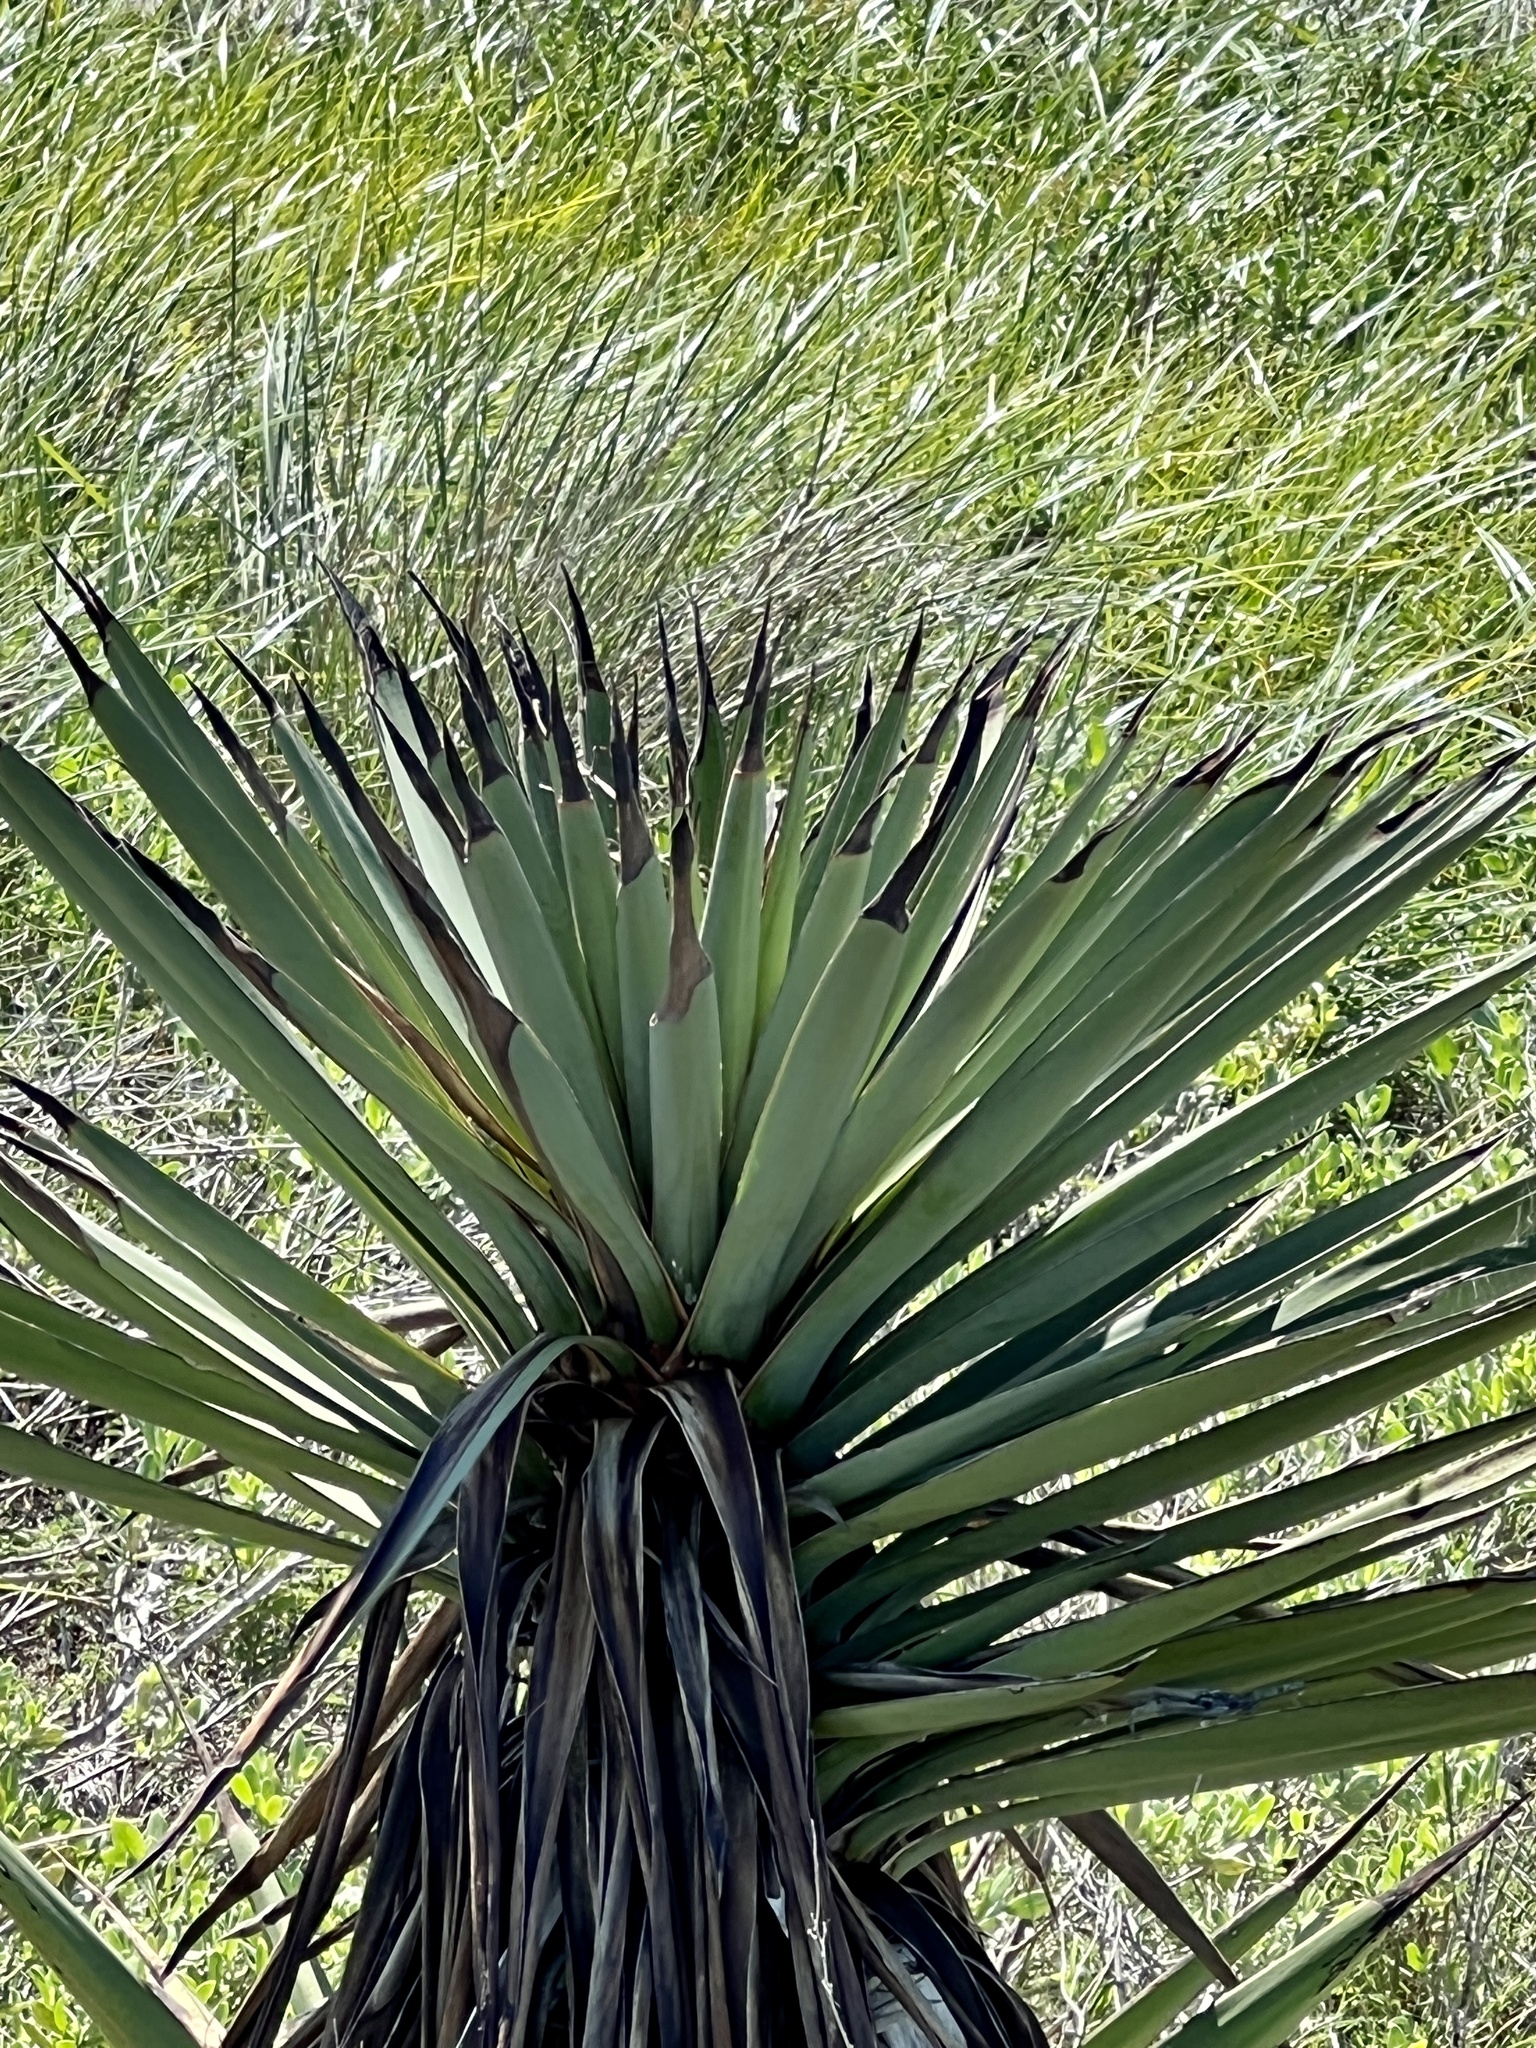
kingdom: Plantae
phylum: Tracheophyta
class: Liliopsida
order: Asparagales
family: Asparagaceae
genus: Yucca
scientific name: Yucca treculiana
